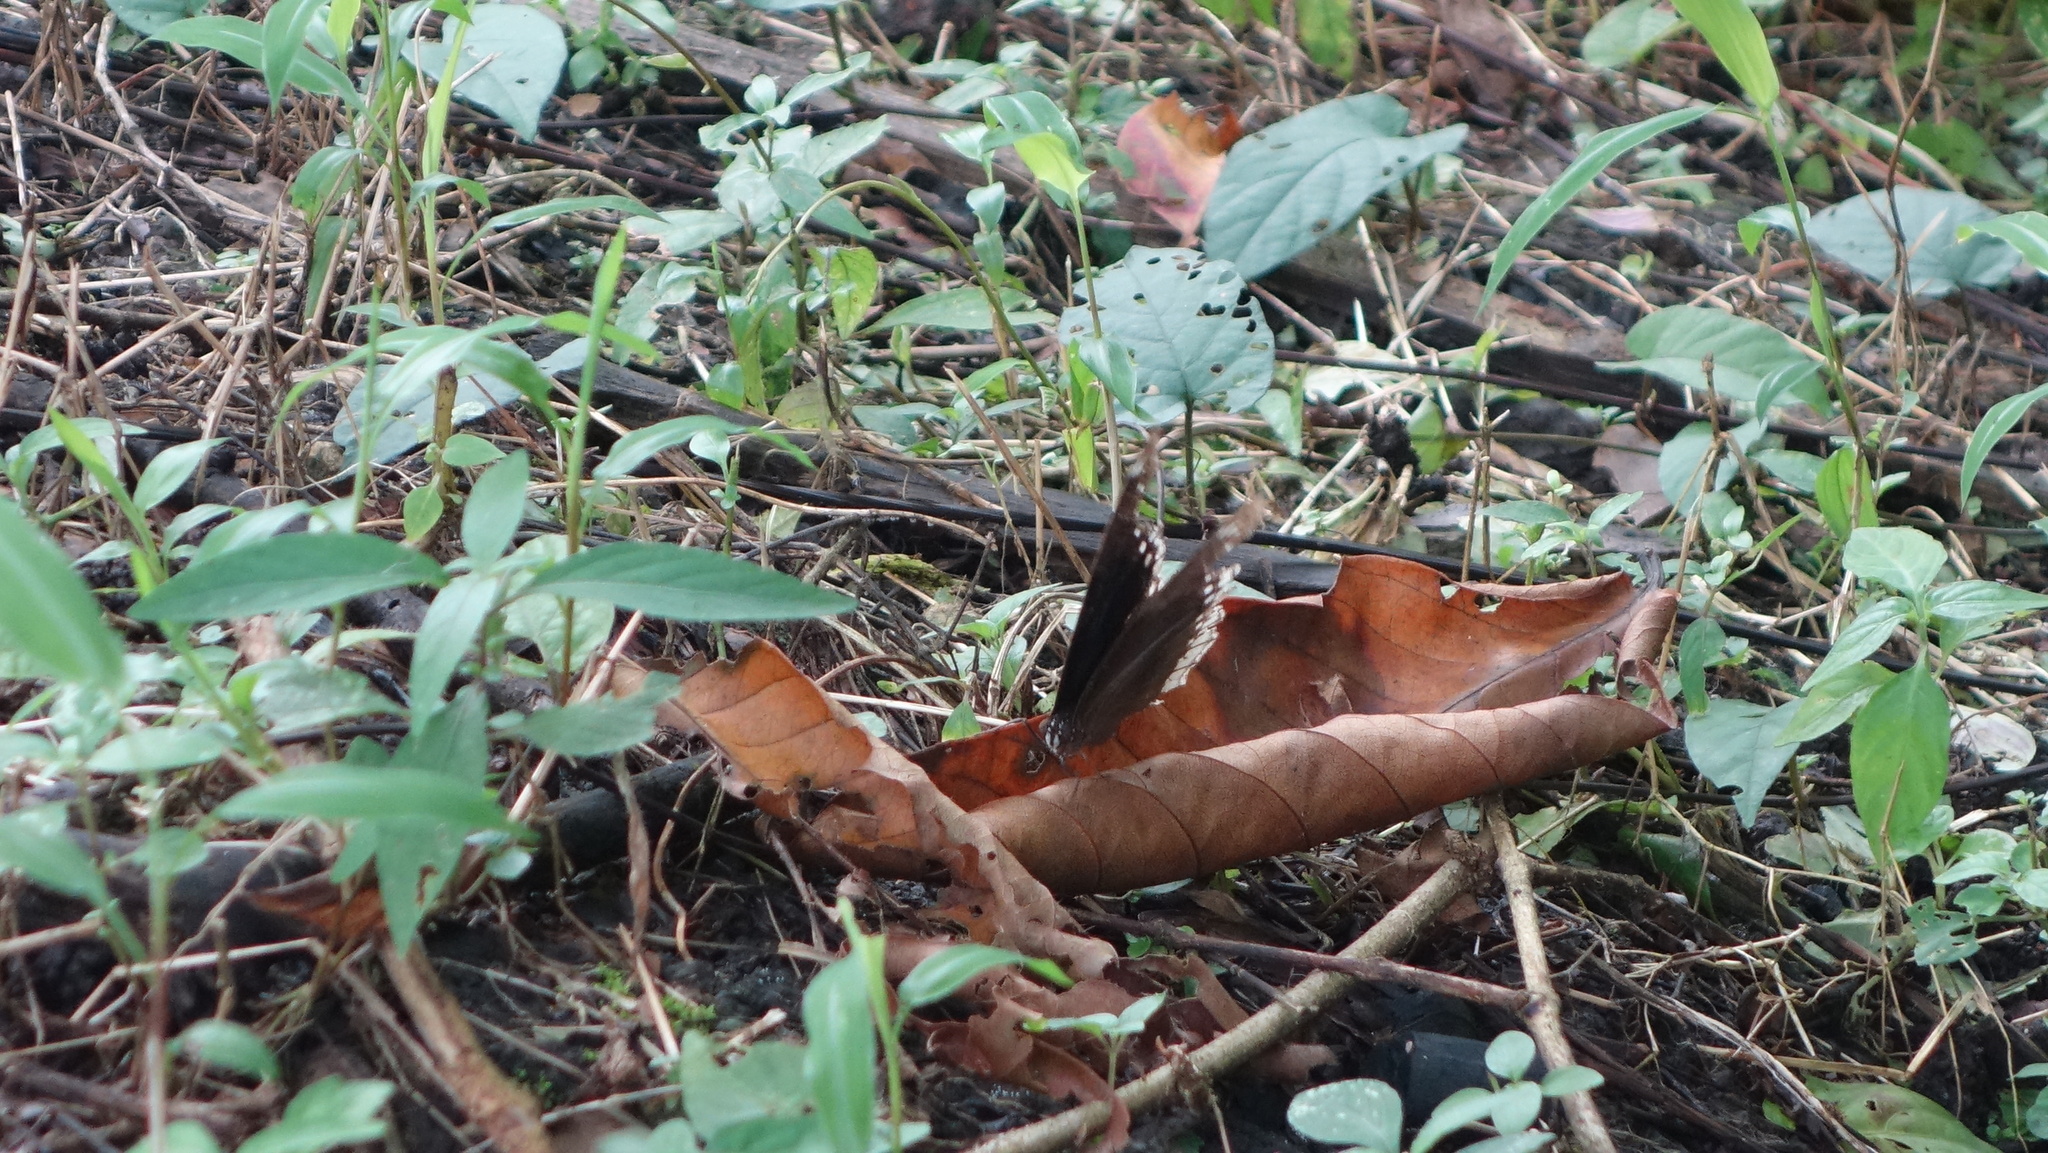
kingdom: Animalia
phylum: Arthropoda
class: Insecta
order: Lepidoptera
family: Nymphalidae
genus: Hypolimnas
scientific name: Hypolimnas bolina
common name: Great eggfly
